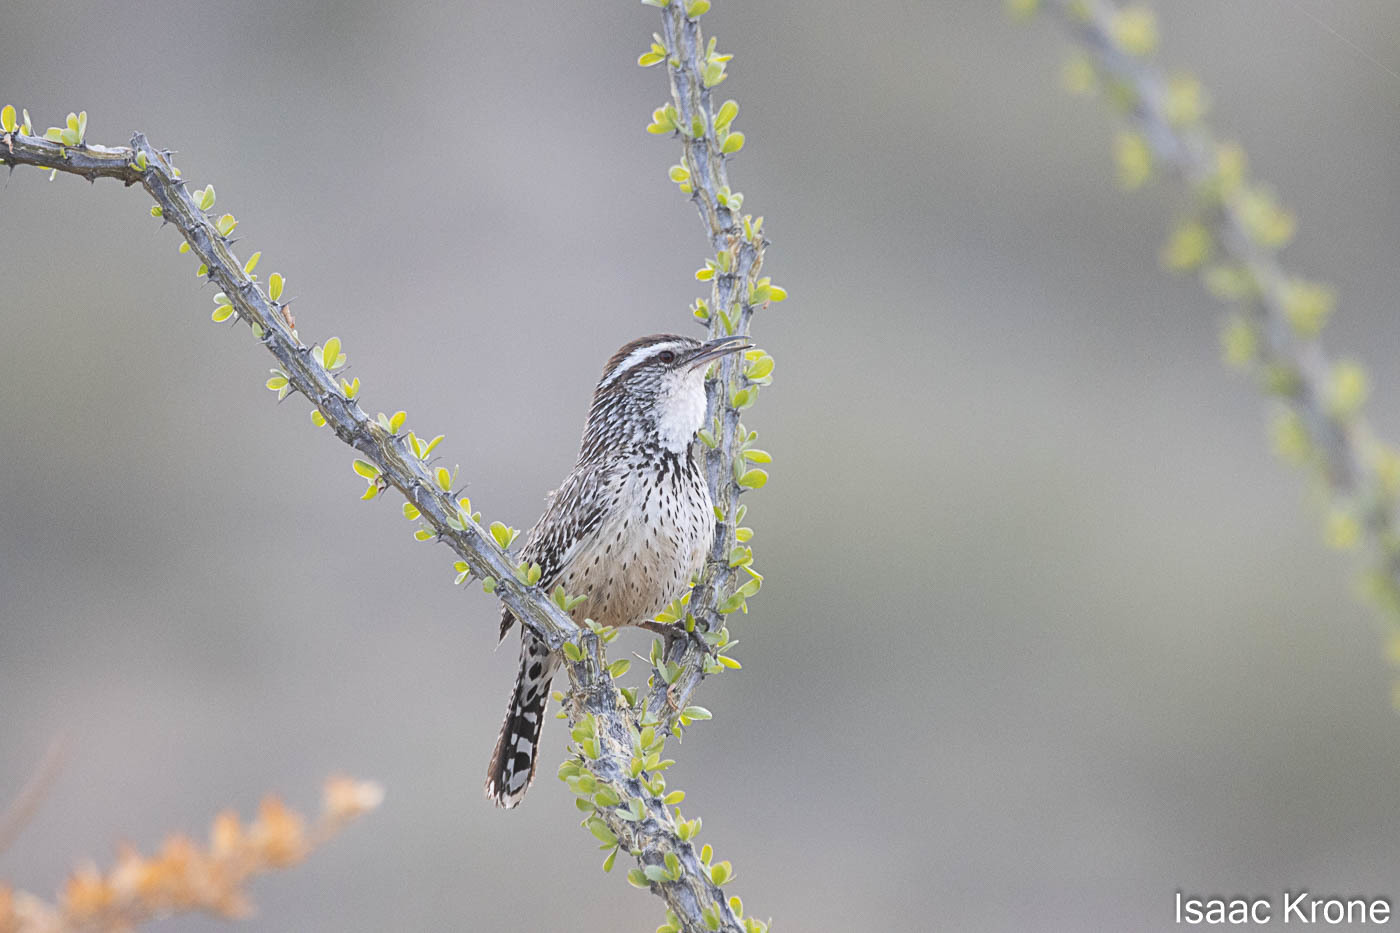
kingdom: Animalia
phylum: Chordata
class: Aves
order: Passeriformes
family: Troglodytidae
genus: Campylorhynchus
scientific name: Campylorhynchus brunneicapillus
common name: Cactus wren
